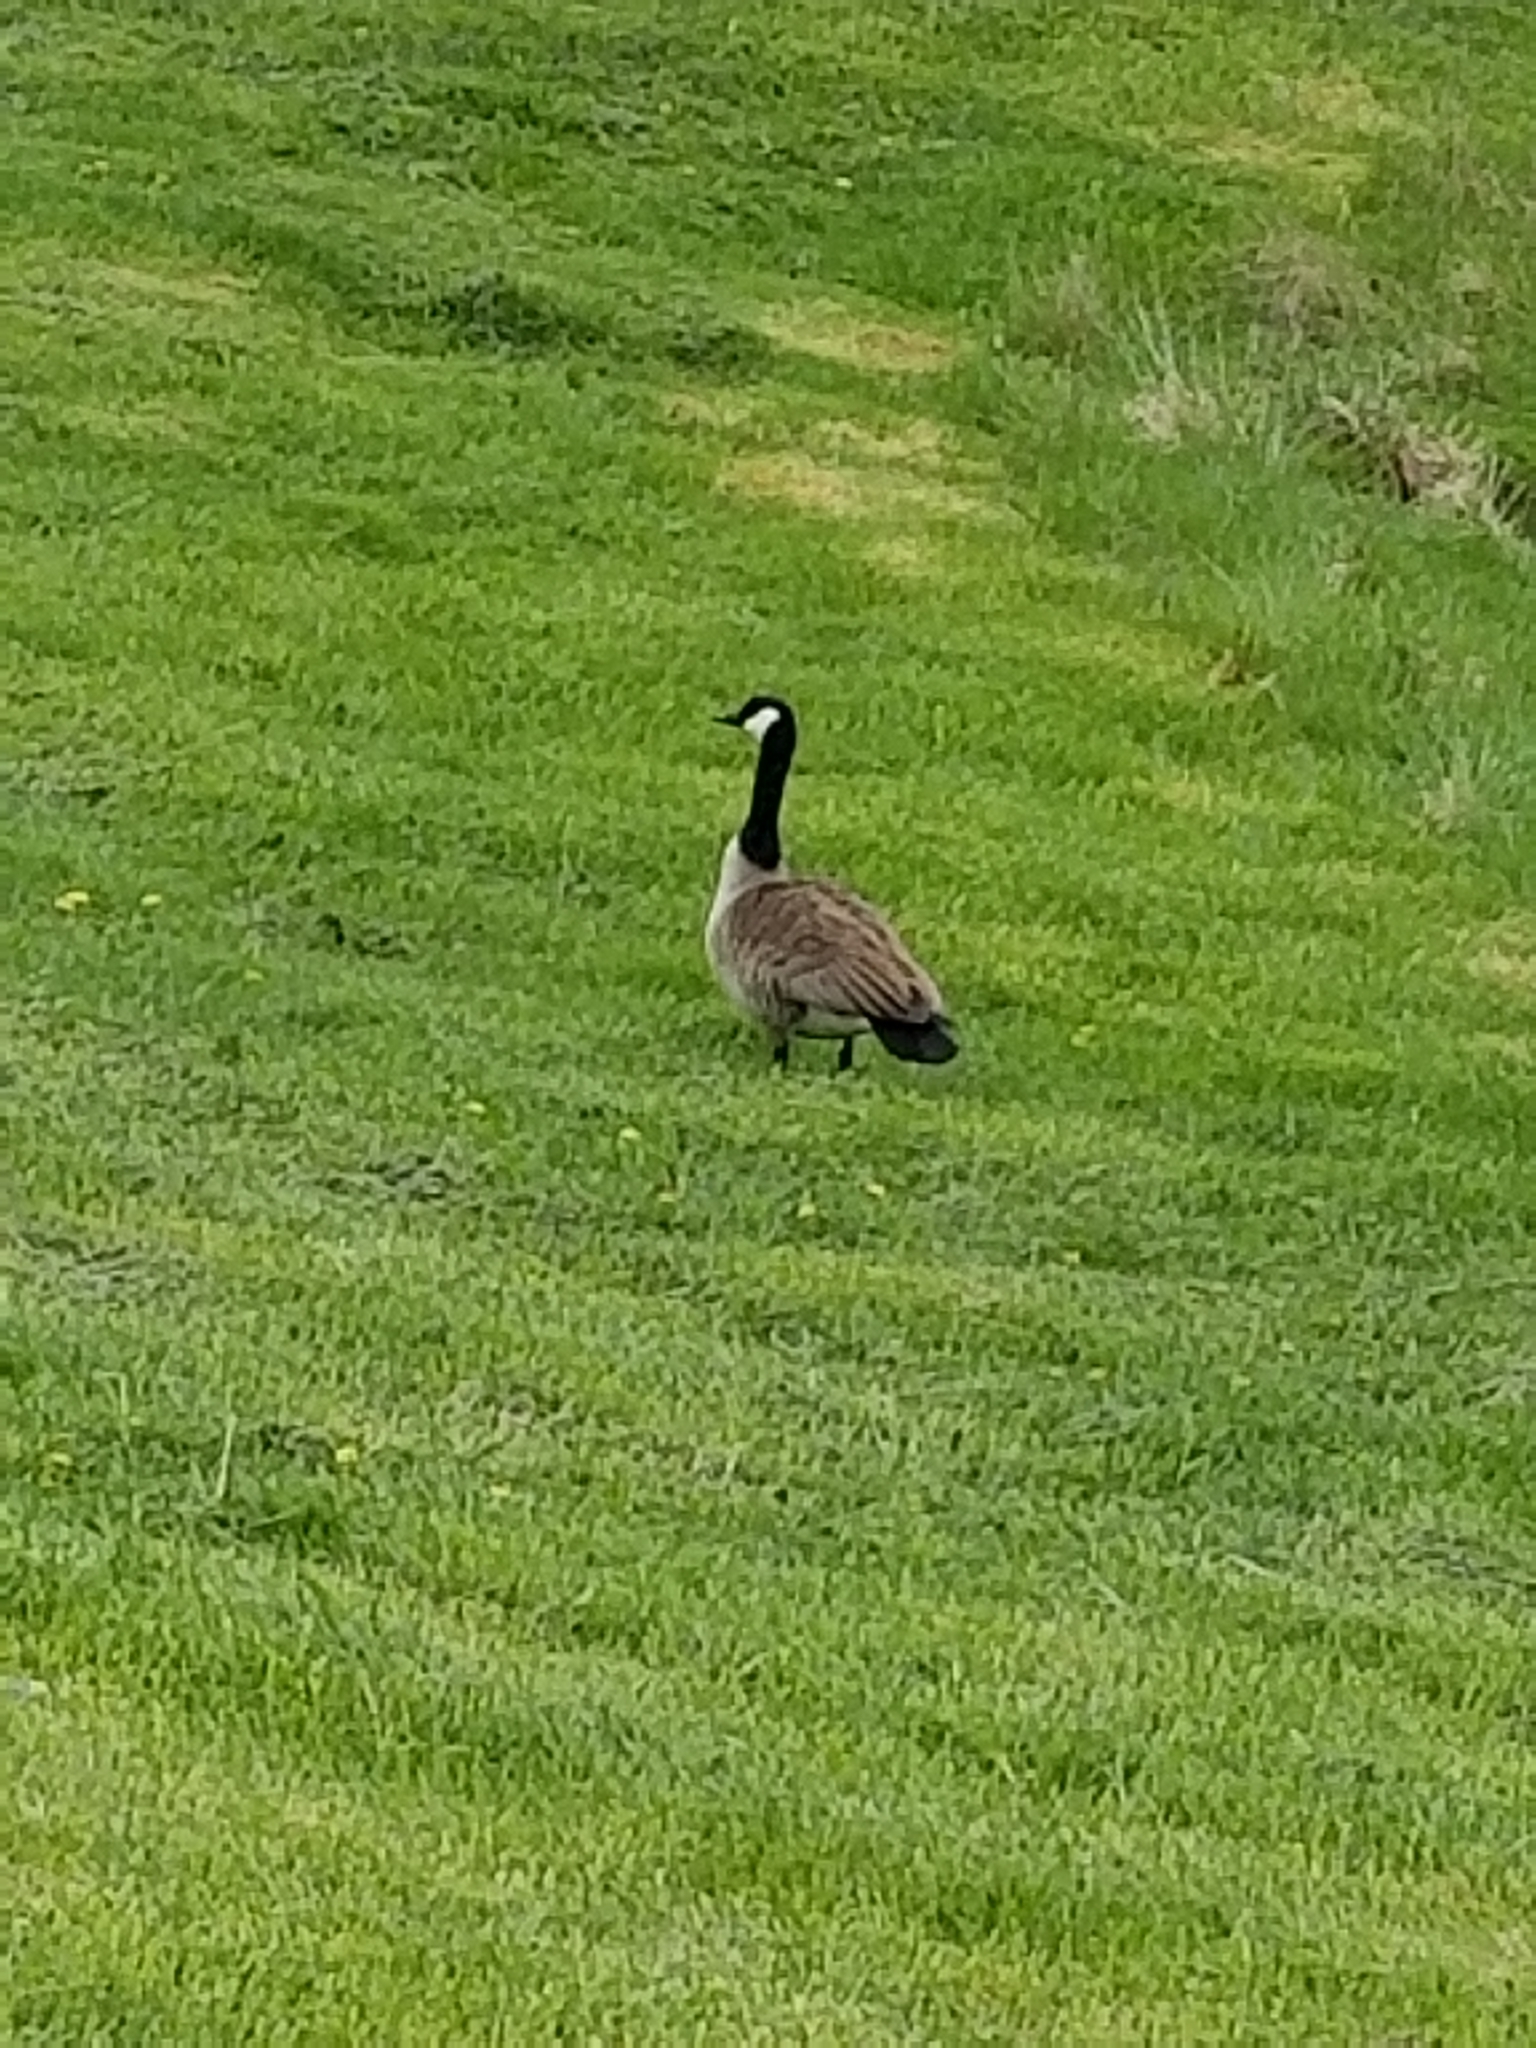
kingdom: Animalia
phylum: Chordata
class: Aves
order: Anseriformes
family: Anatidae
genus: Branta
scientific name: Branta canadensis
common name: Canada goose
